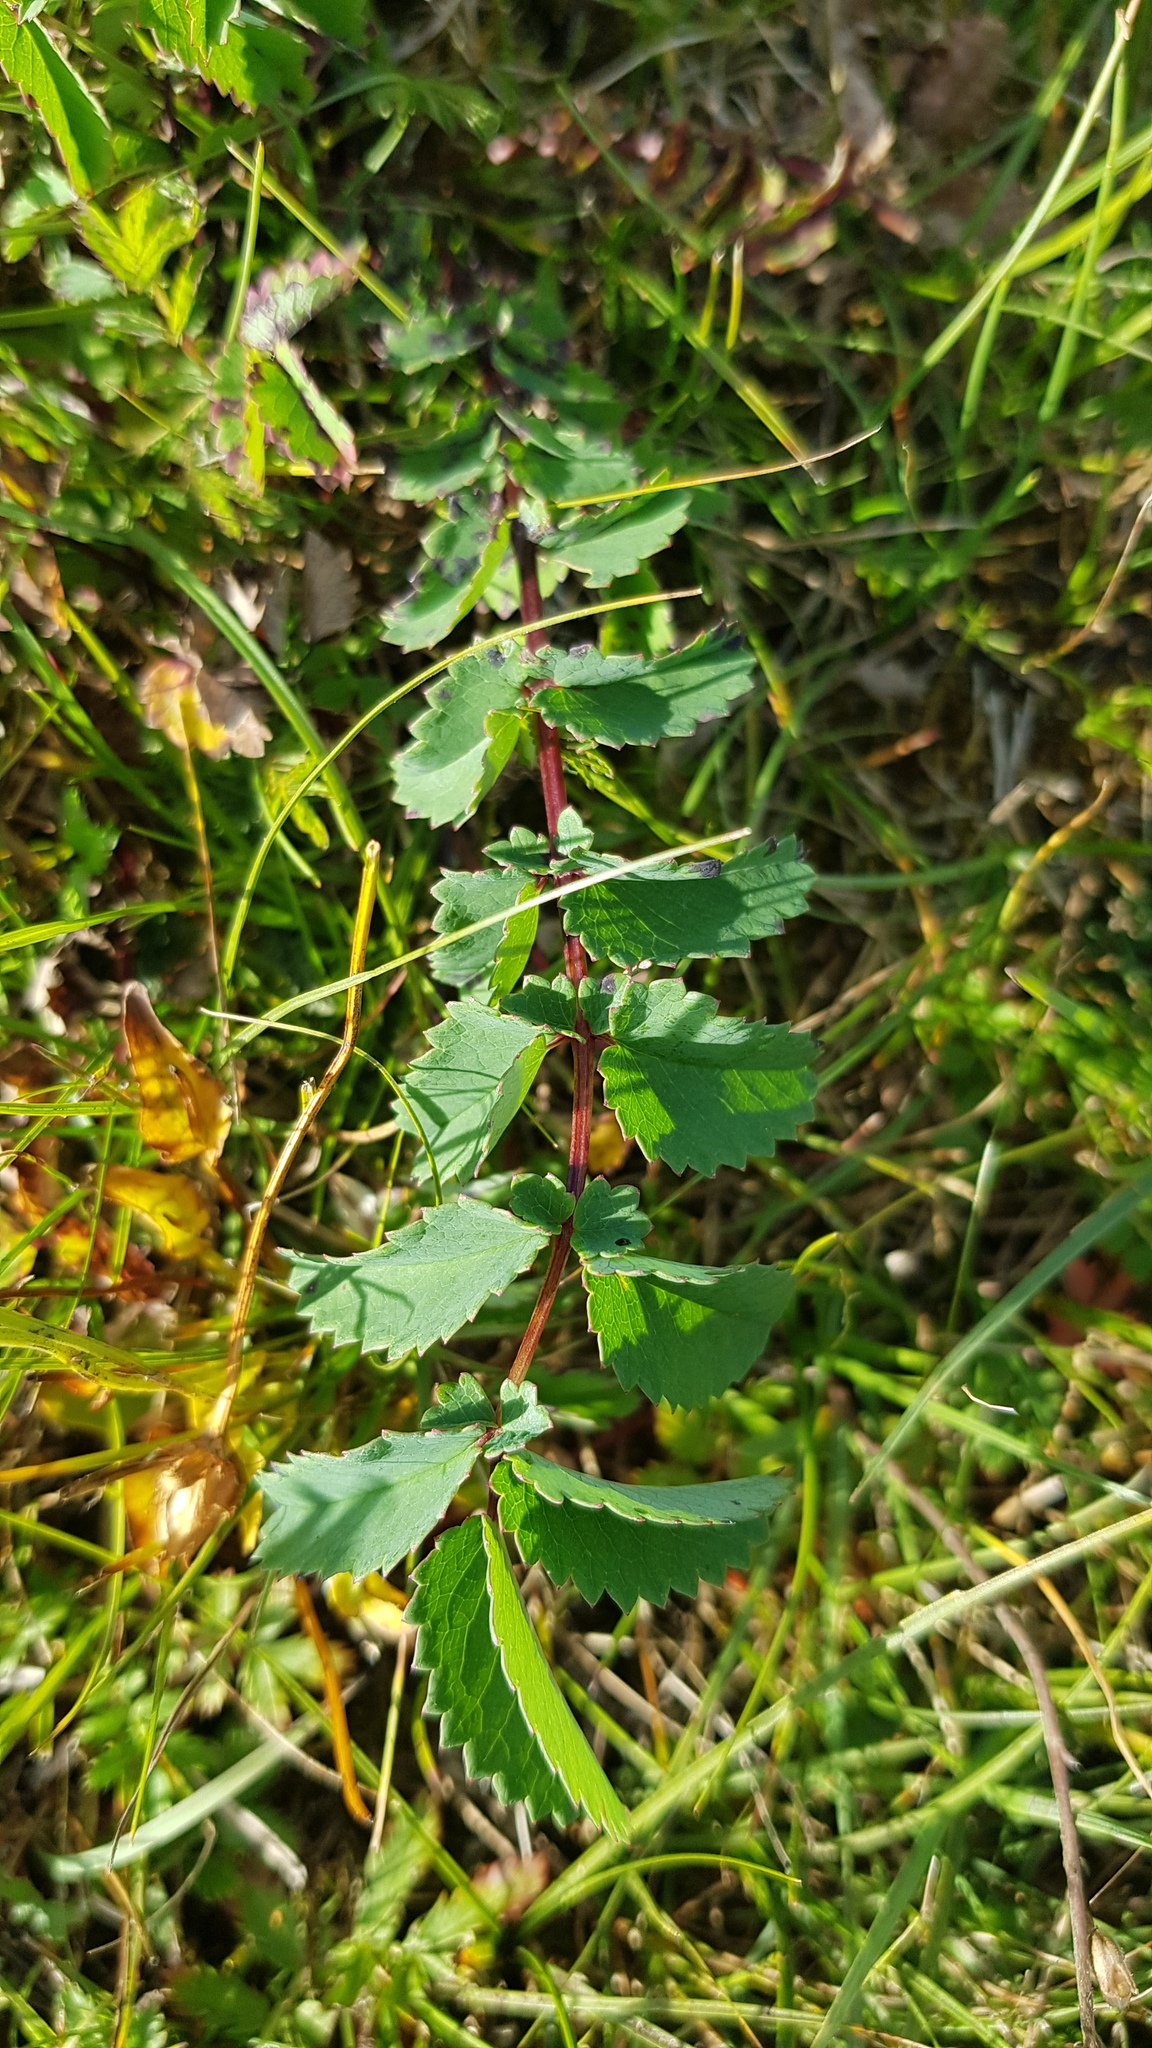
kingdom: Plantae
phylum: Tracheophyta
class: Magnoliopsida
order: Rosales
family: Rosaceae
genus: Sanguisorba
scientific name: Sanguisorba officinalis
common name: Great burnet
